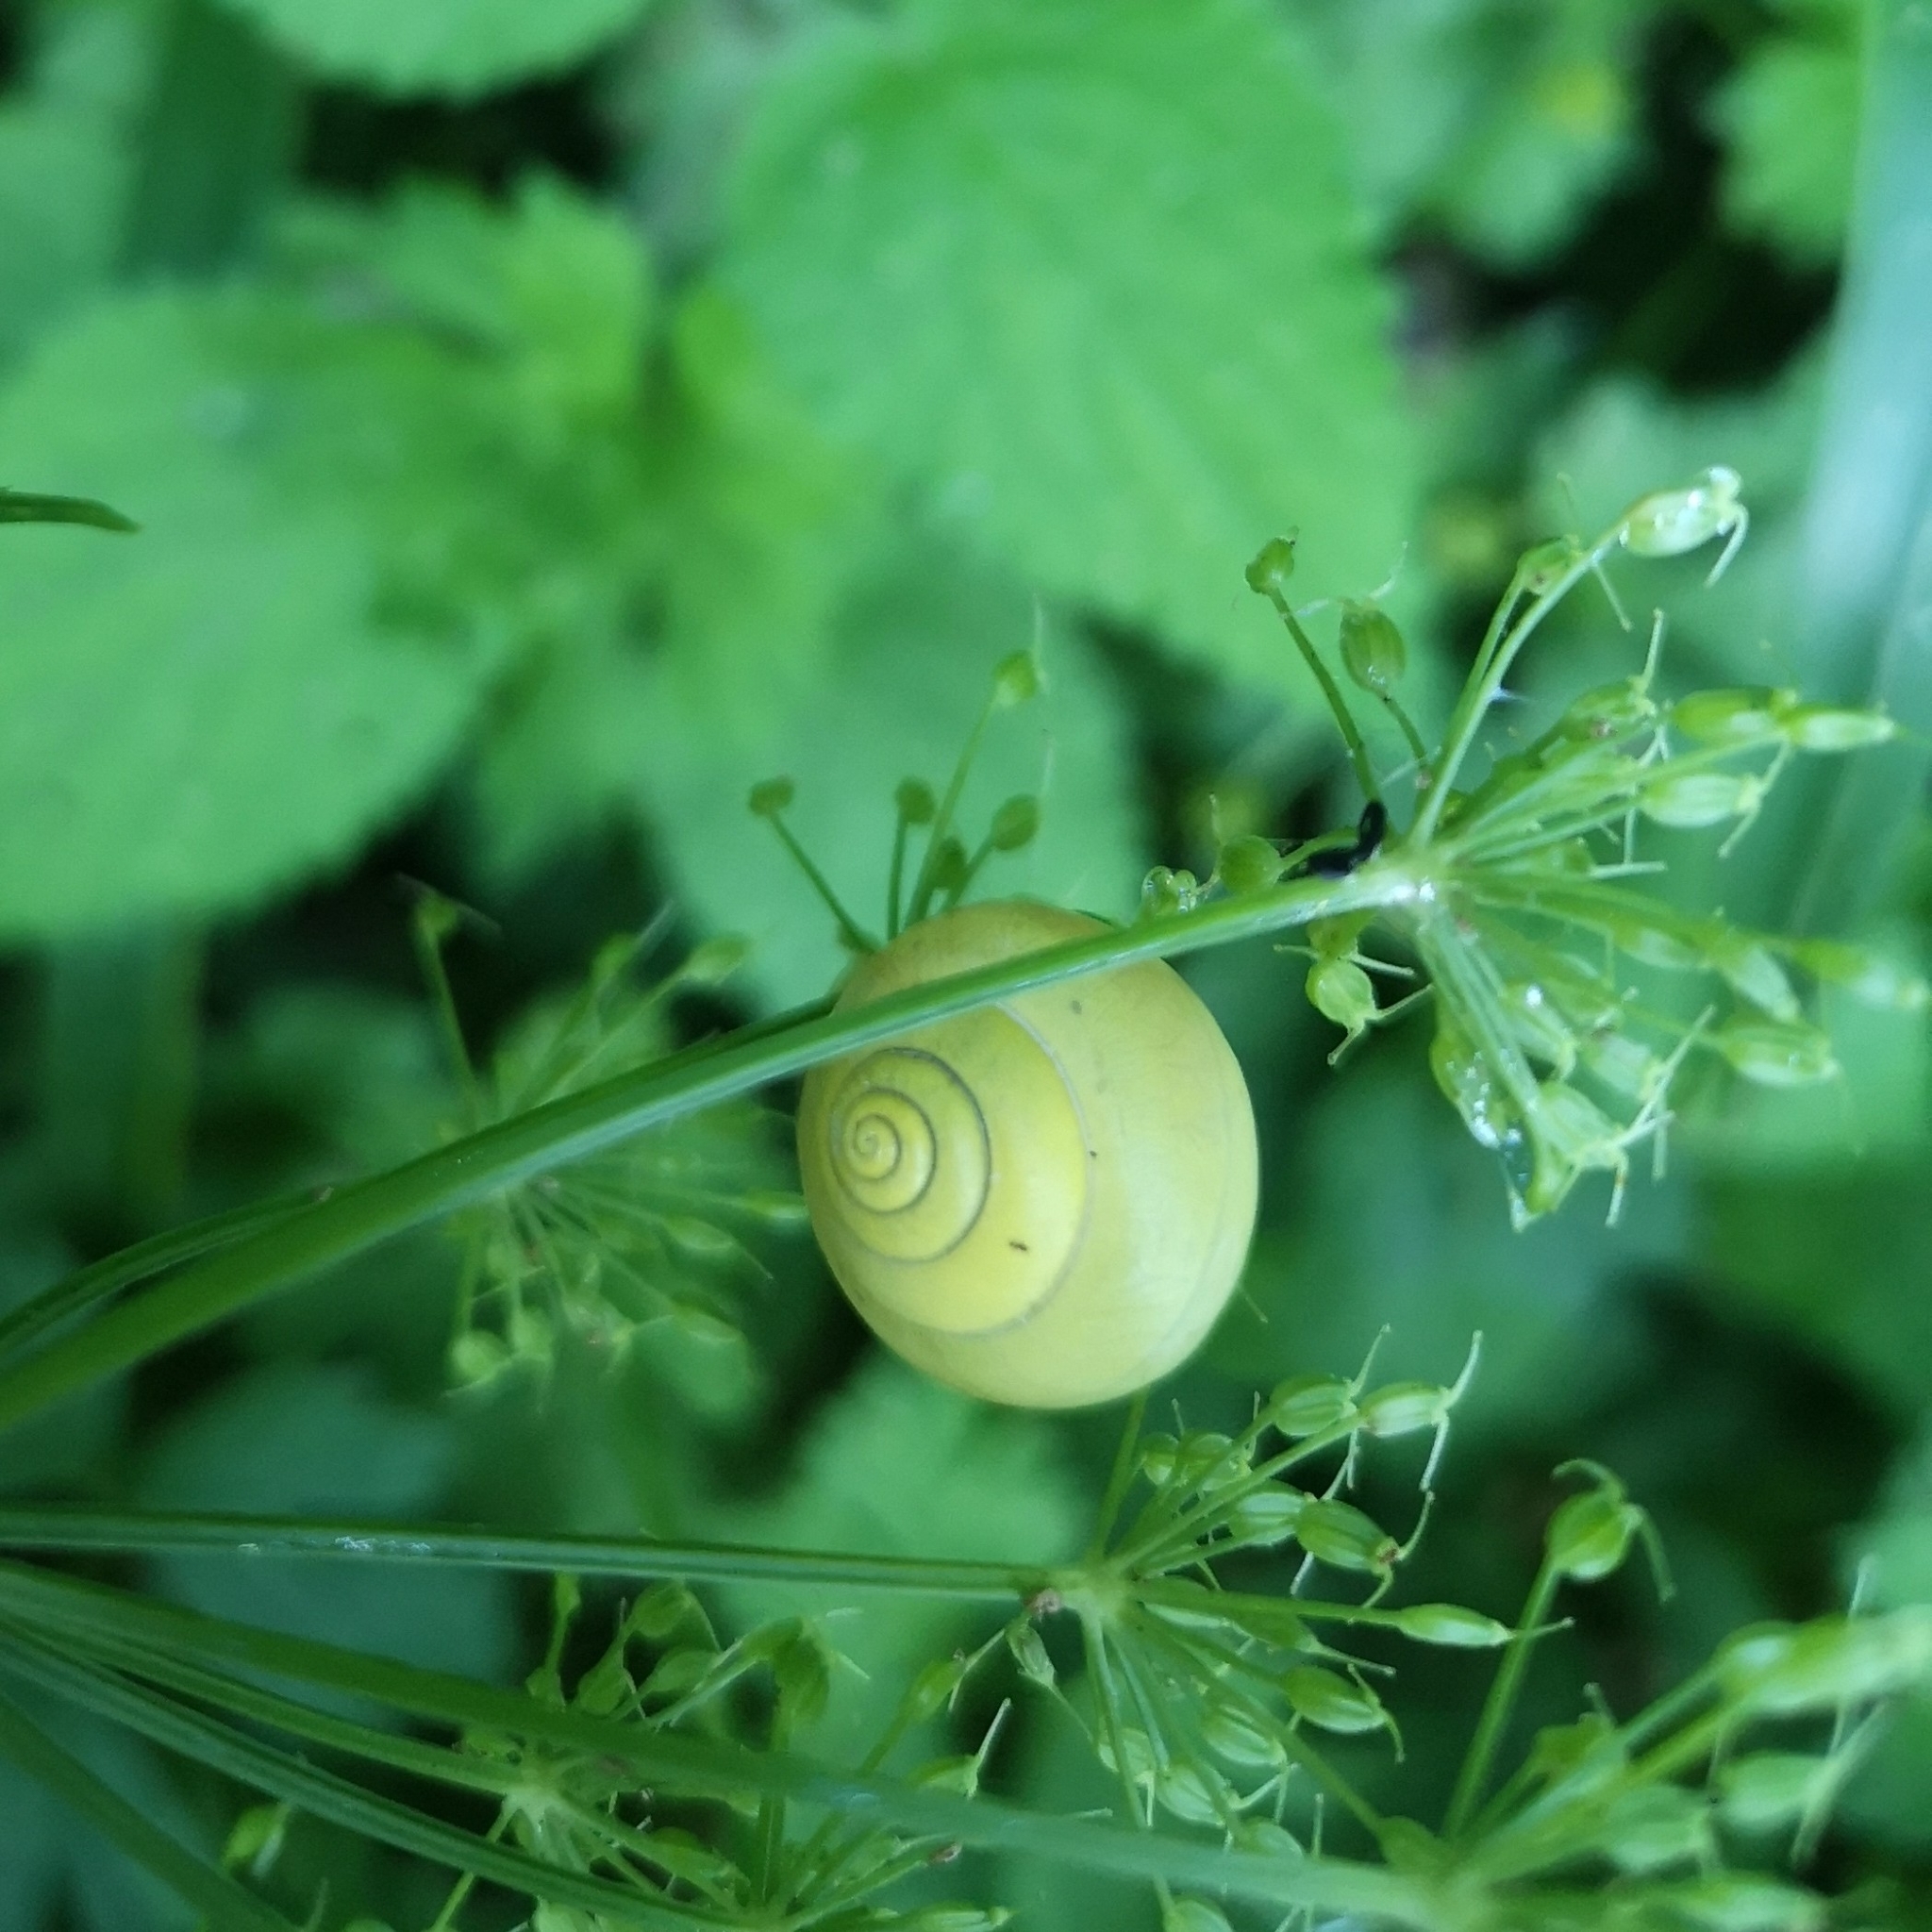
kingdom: Animalia
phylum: Mollusca
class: Gastropoda
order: Stylommatophora
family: Camaenidae
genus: Fruticicola
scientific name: Fruticicola fruticum
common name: Bush snail
